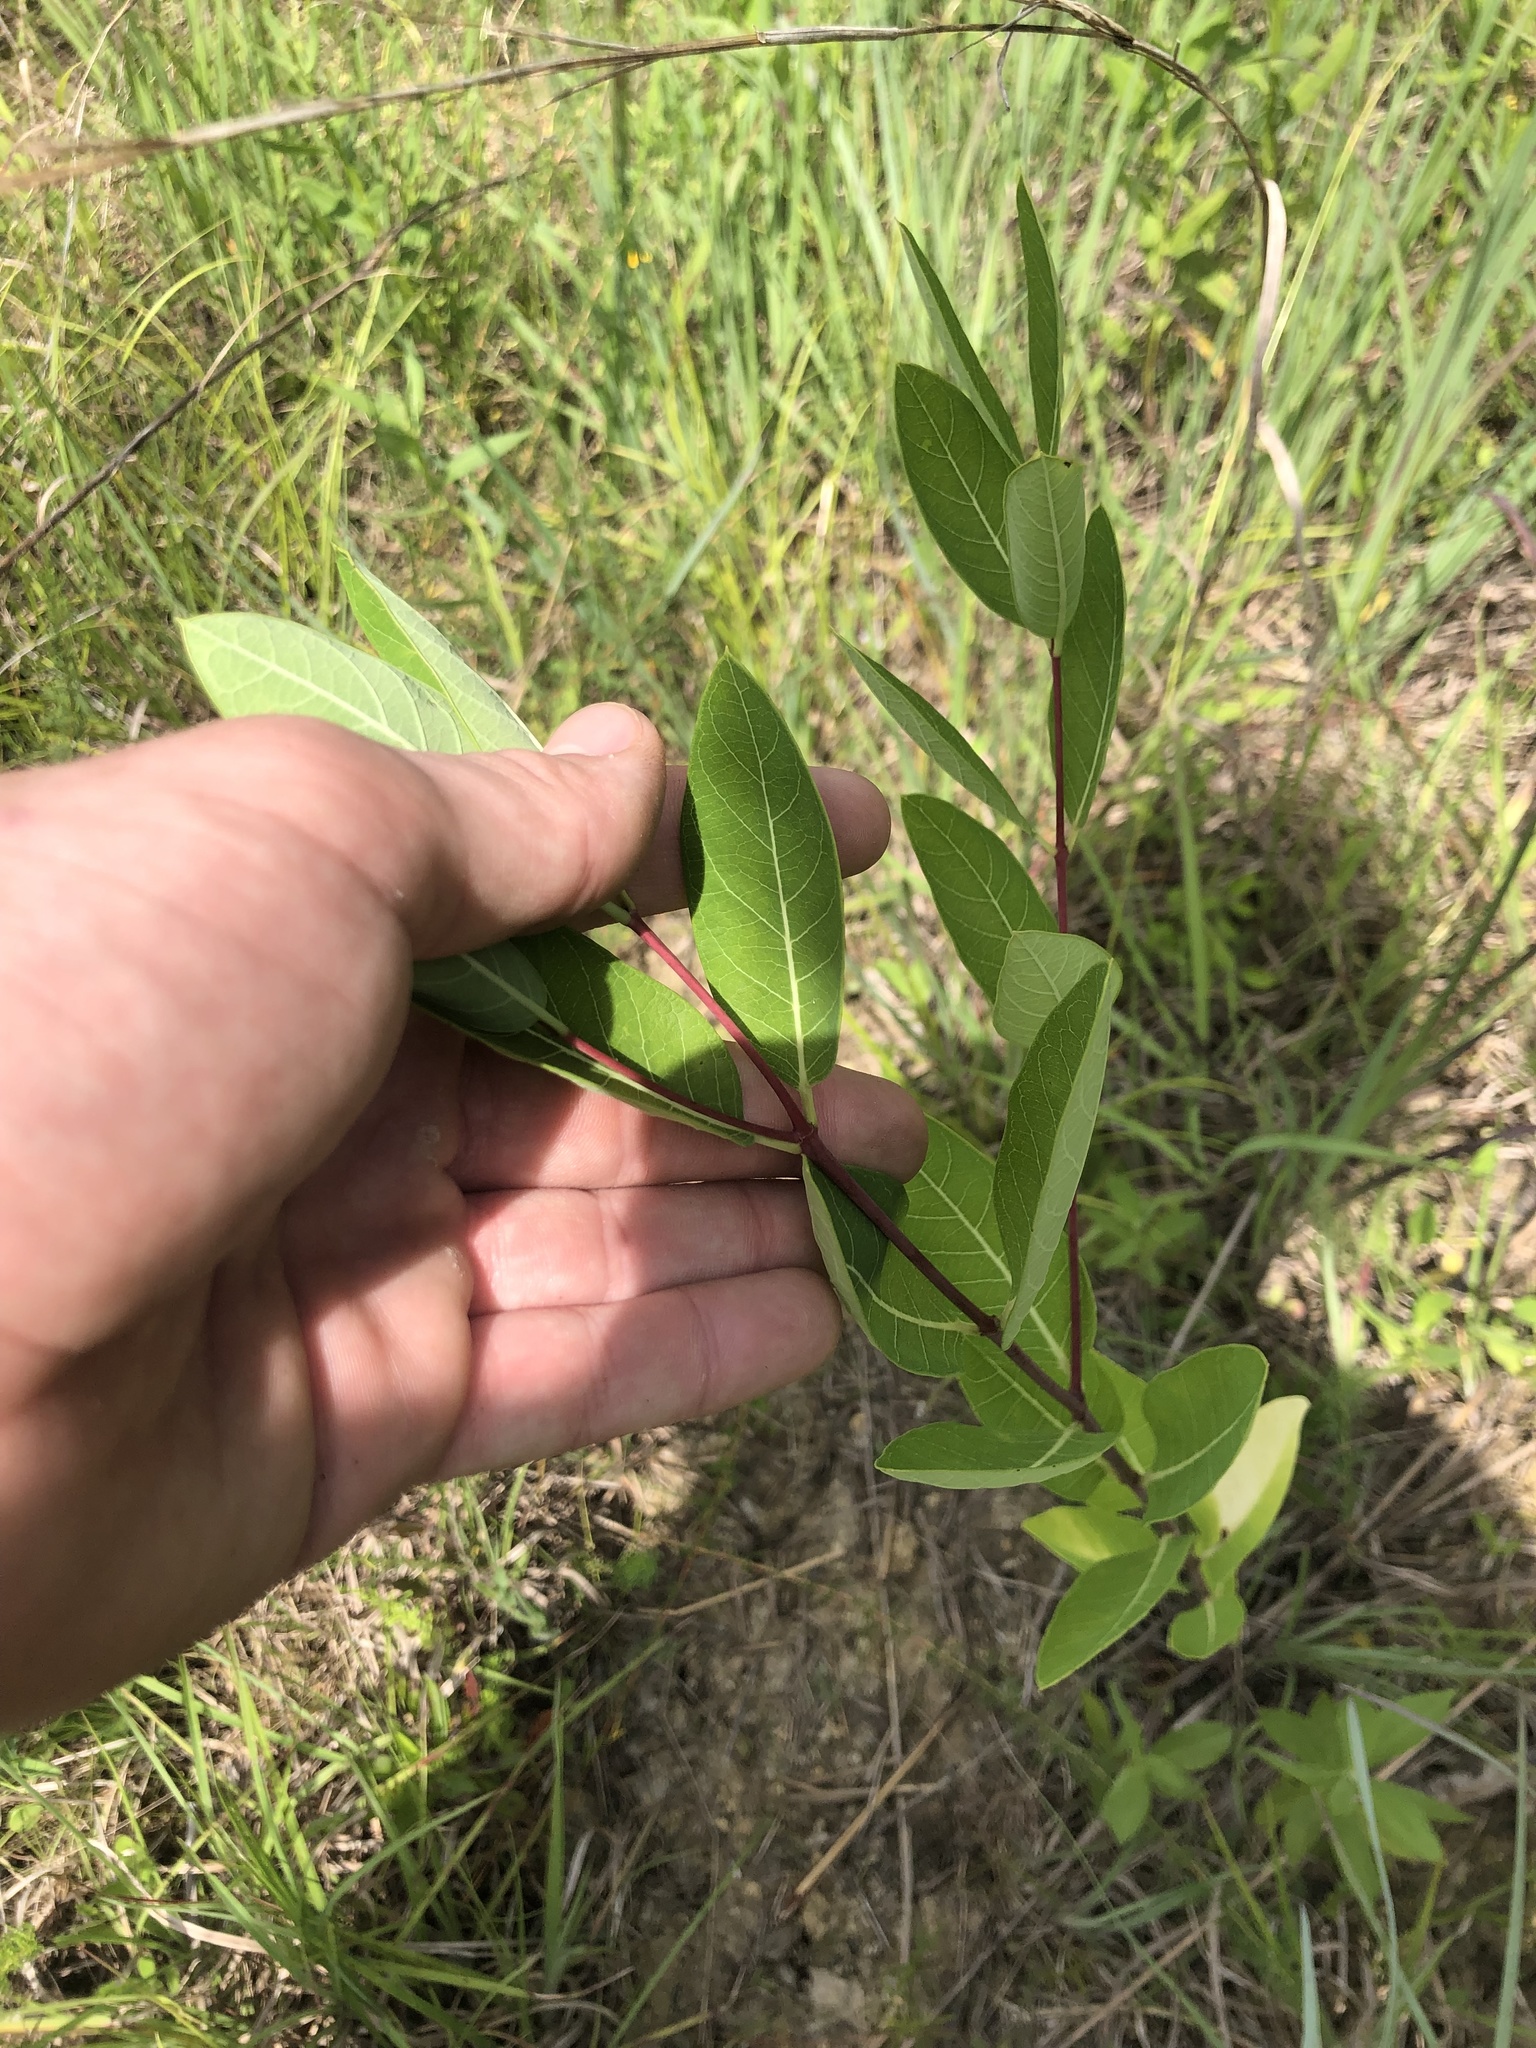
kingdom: Plantae
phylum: Tracheophyta
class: Magnoliopsida
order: Gentianales
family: Apocynaceae
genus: Apocynum
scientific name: Apocynum cannabinum
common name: Hemp dogbane
